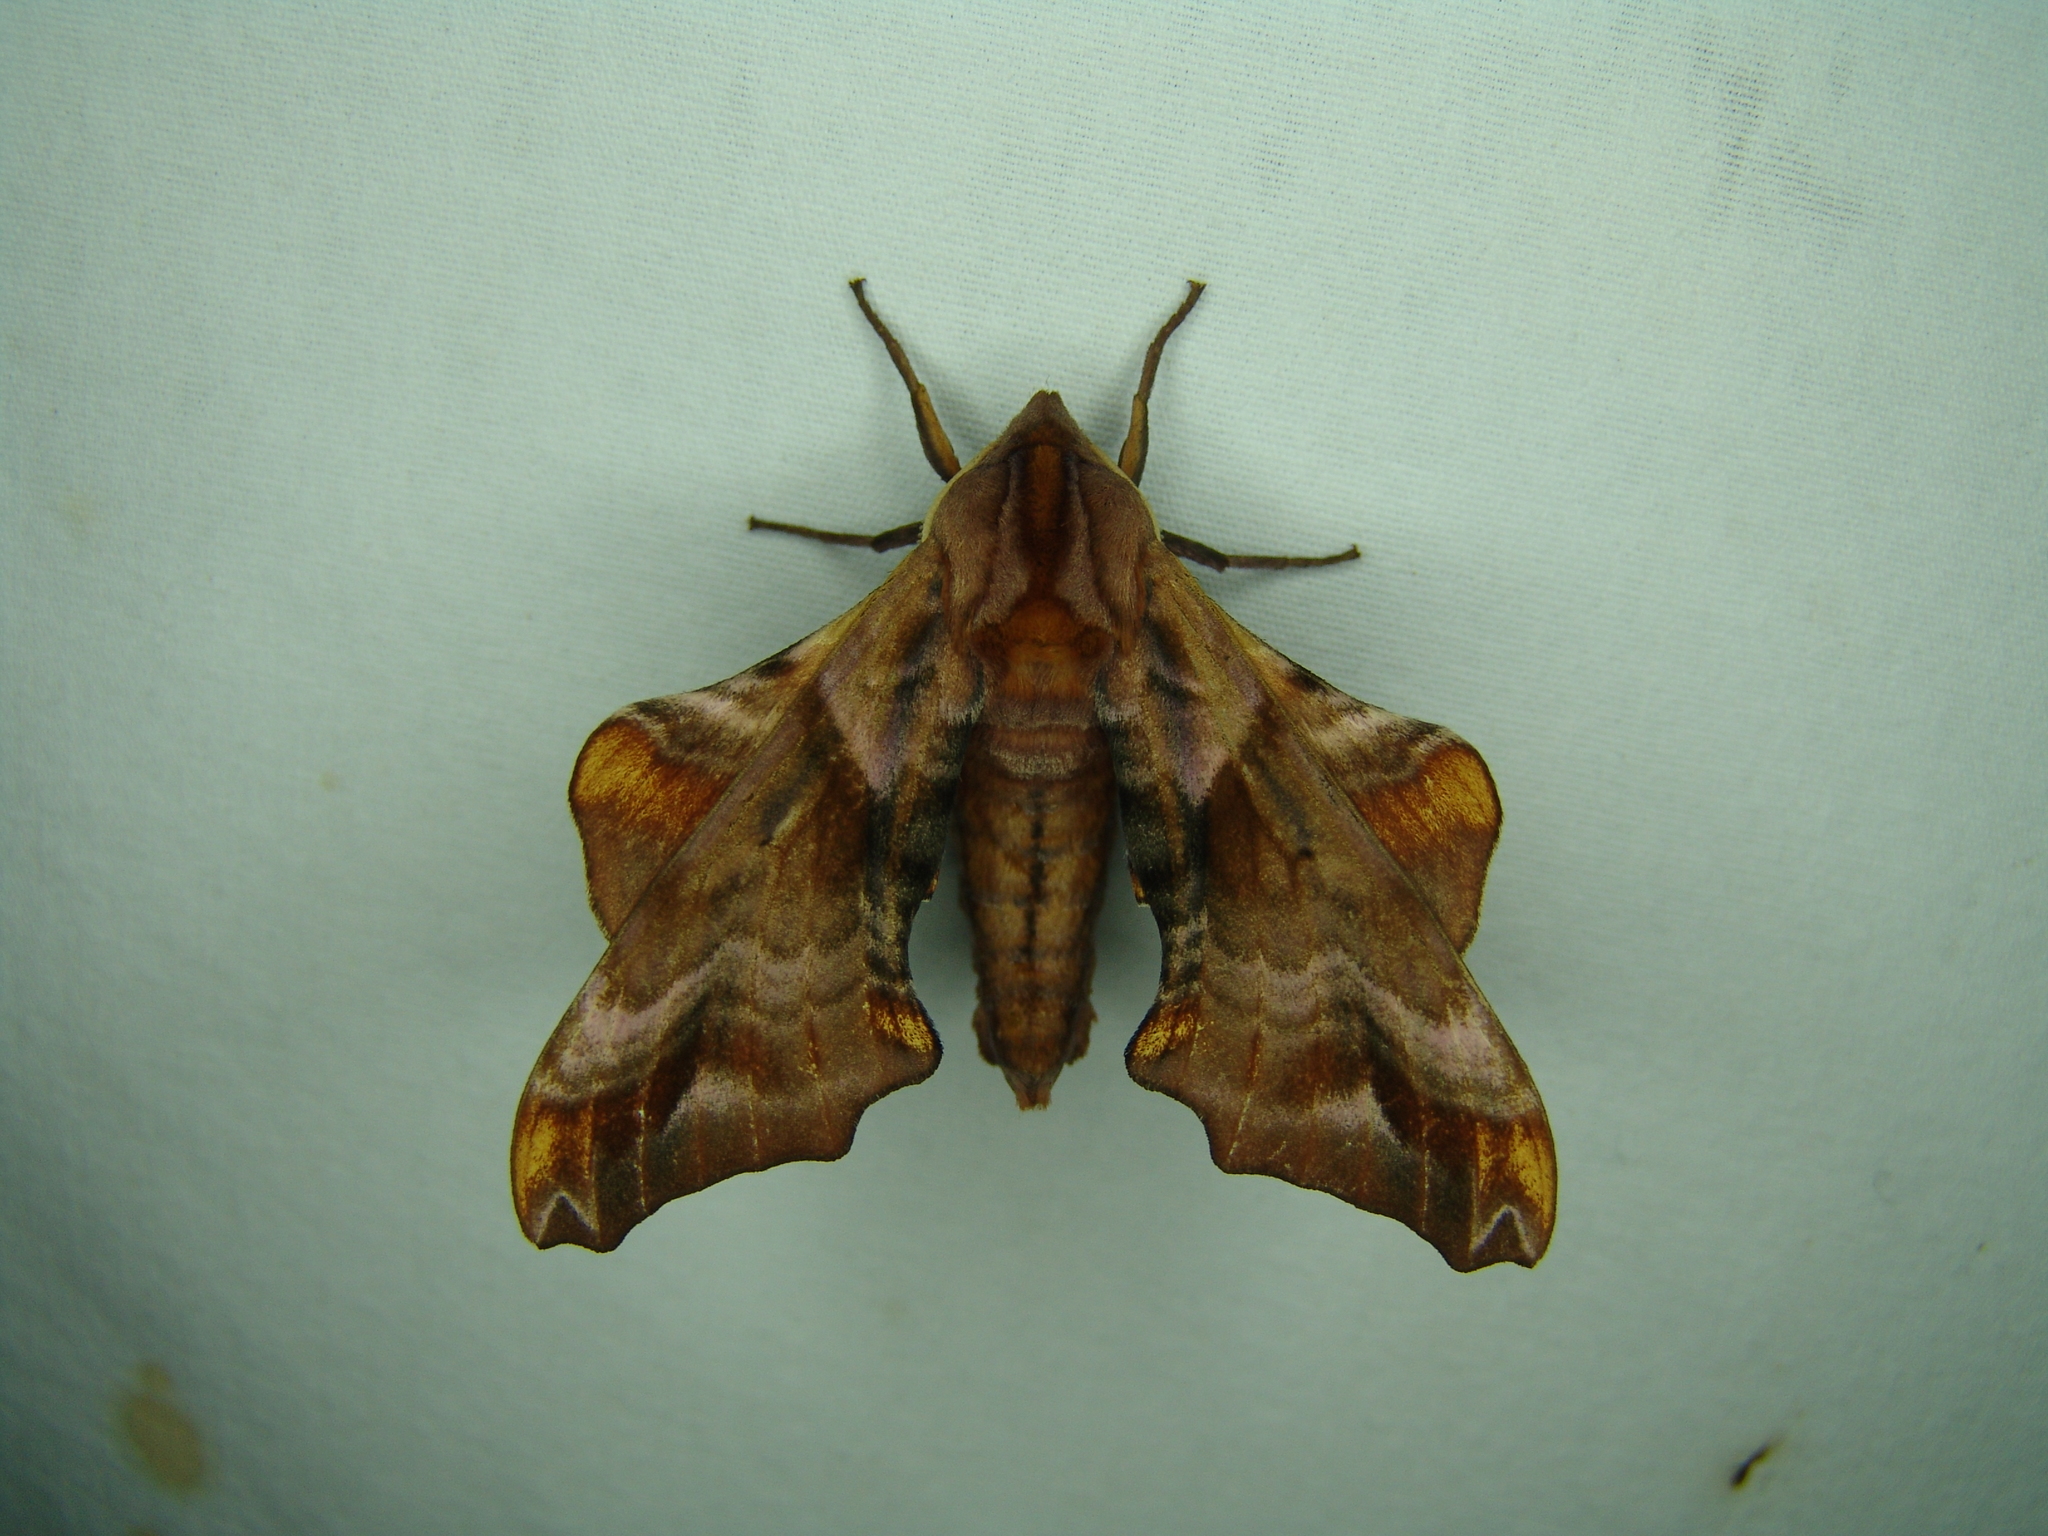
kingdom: Animalia
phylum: Arthropoda
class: Insecta
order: Lepidoptera
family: Sphingidae
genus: Paonias
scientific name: Paonias myops
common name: Small-eyed sphinx
